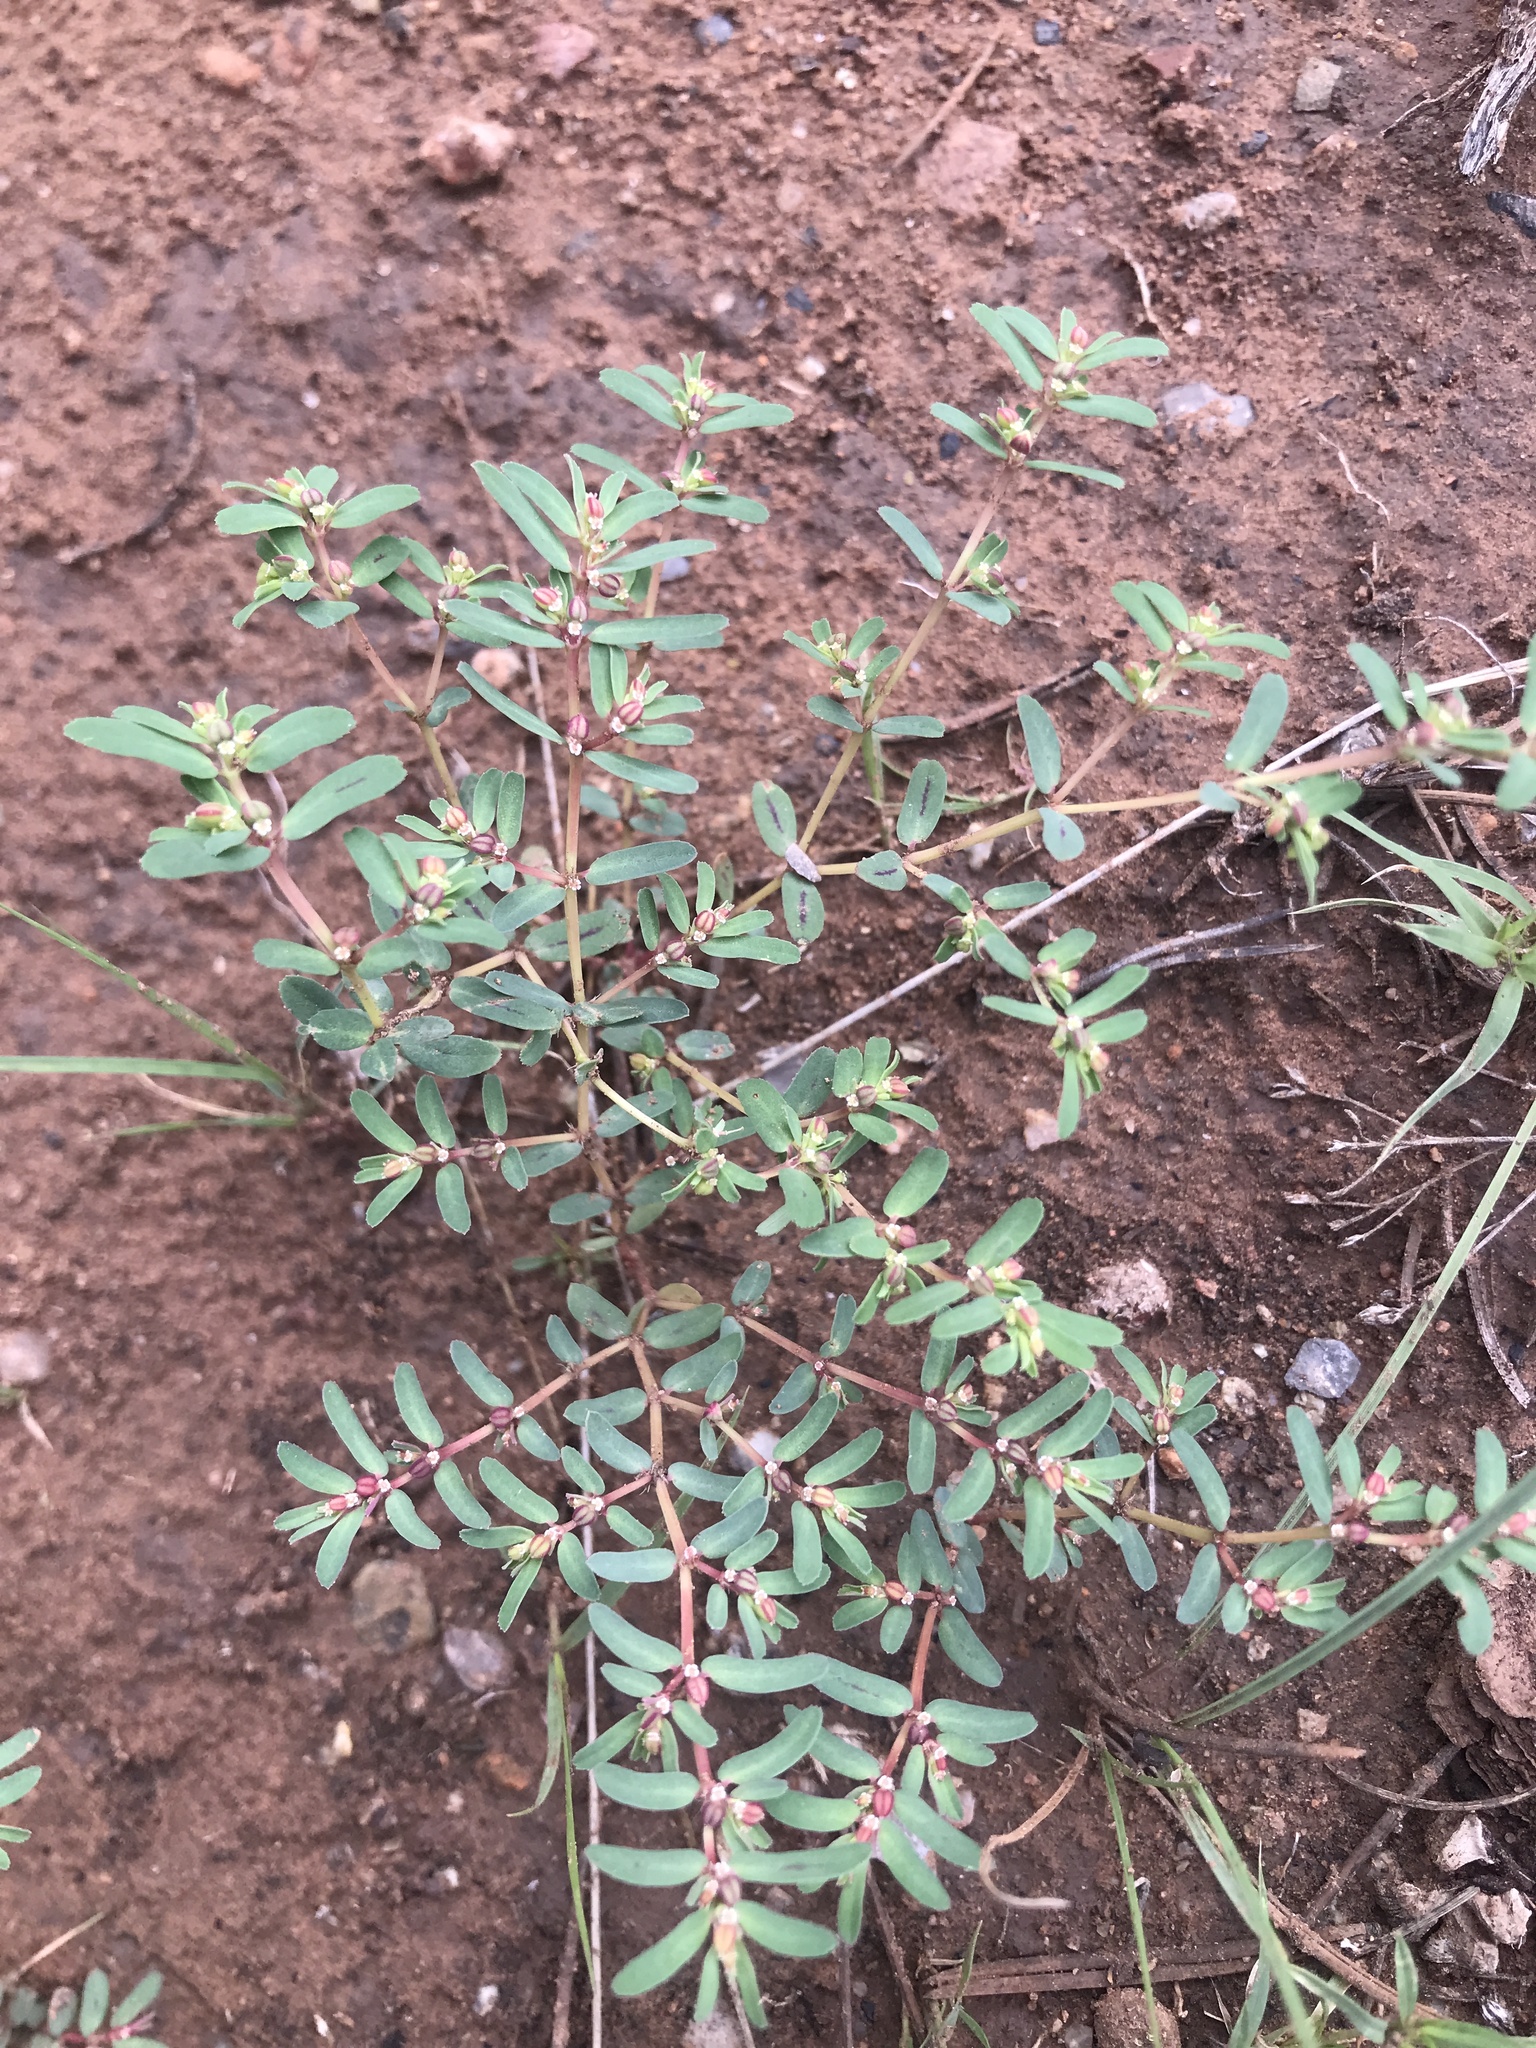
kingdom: Plantae
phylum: Tracheophyta
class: Magnoliopsida
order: Malpighiales
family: Euphorbiaceae
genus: Euphorbia
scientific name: Euphorbia serpillifolia
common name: Thyme-leaf spurge
